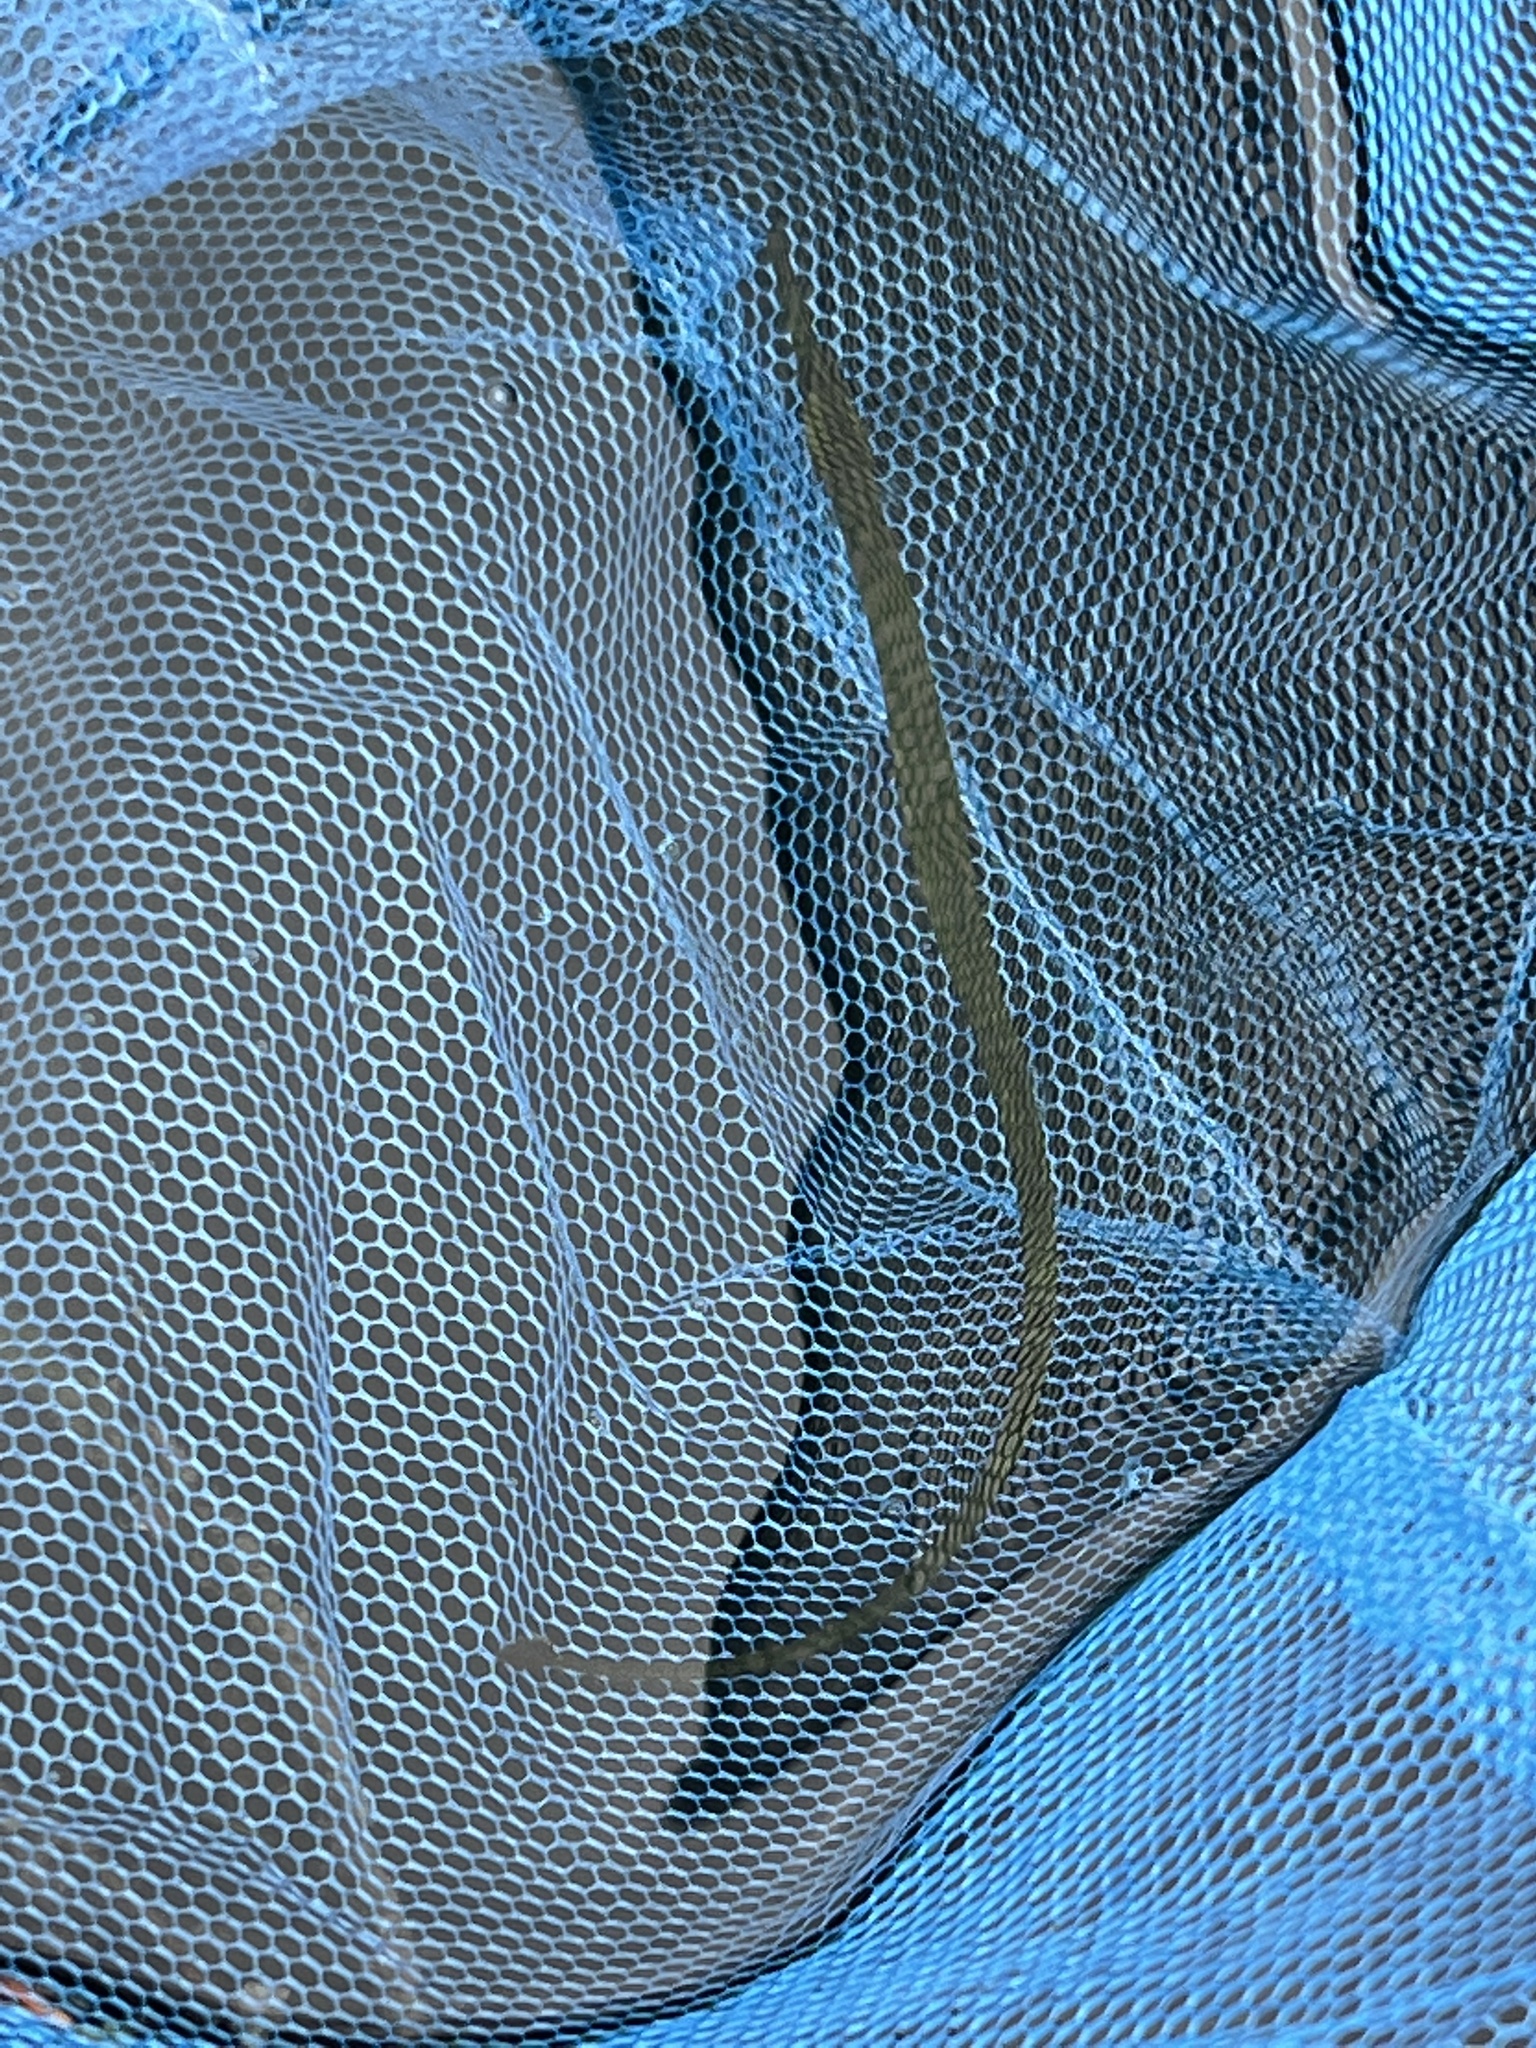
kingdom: Animalia
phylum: Chordata
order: Syngnathiformes
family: Syngnathidae
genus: Syngnathus
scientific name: Syngnathus californiensis
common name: Great pipefish
